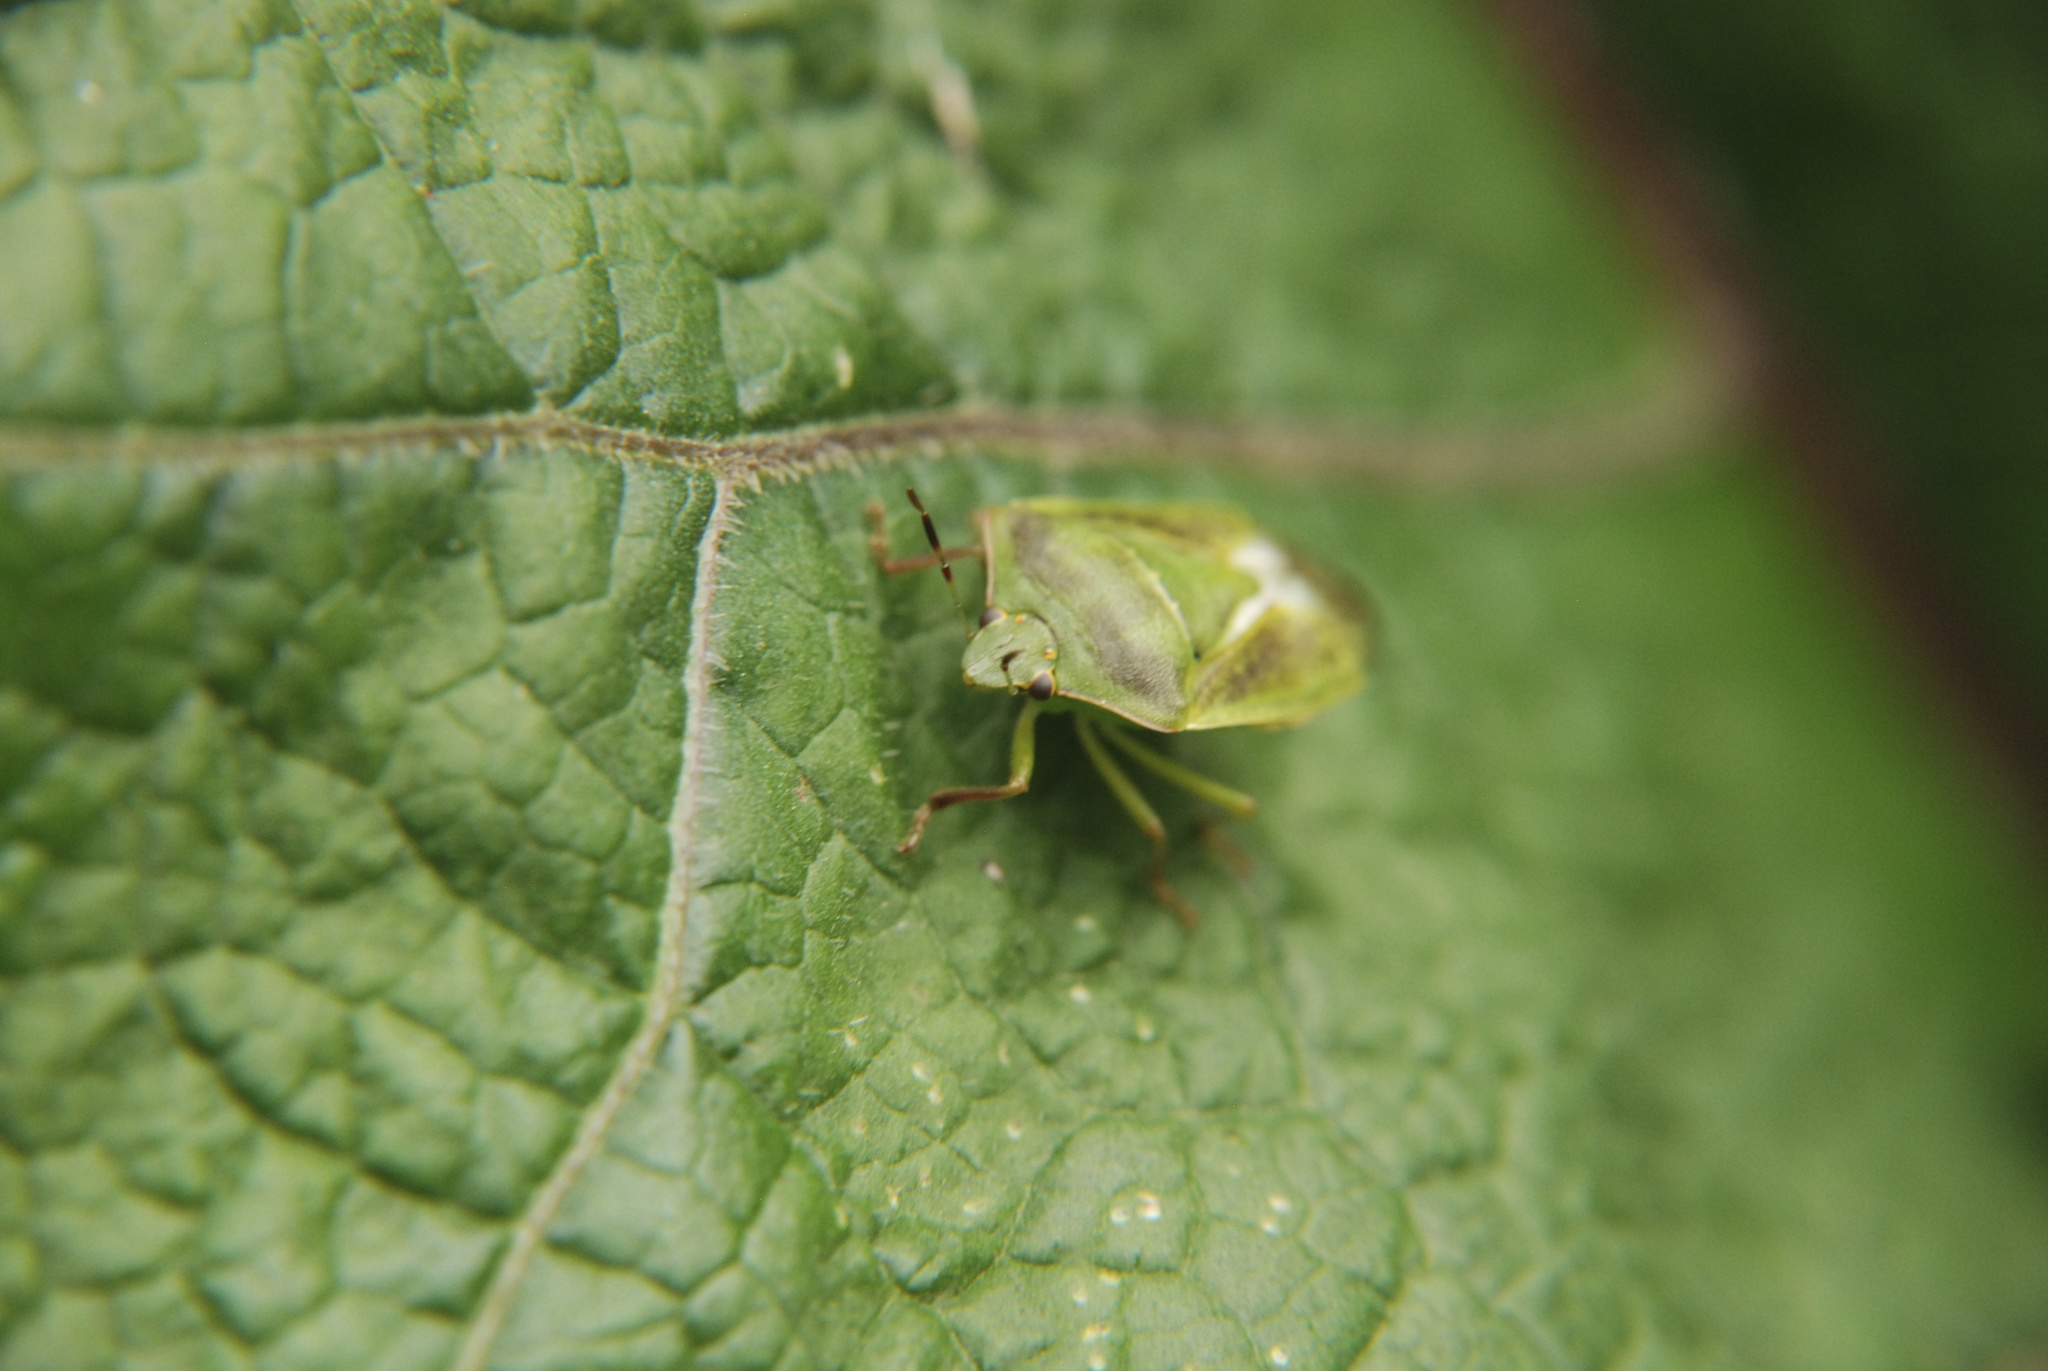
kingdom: Animalia
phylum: Arthropoda
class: Insecta
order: Hemiptera
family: Pentatomidae
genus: Nezara
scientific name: Nezara viridula
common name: Southern green stink bug
